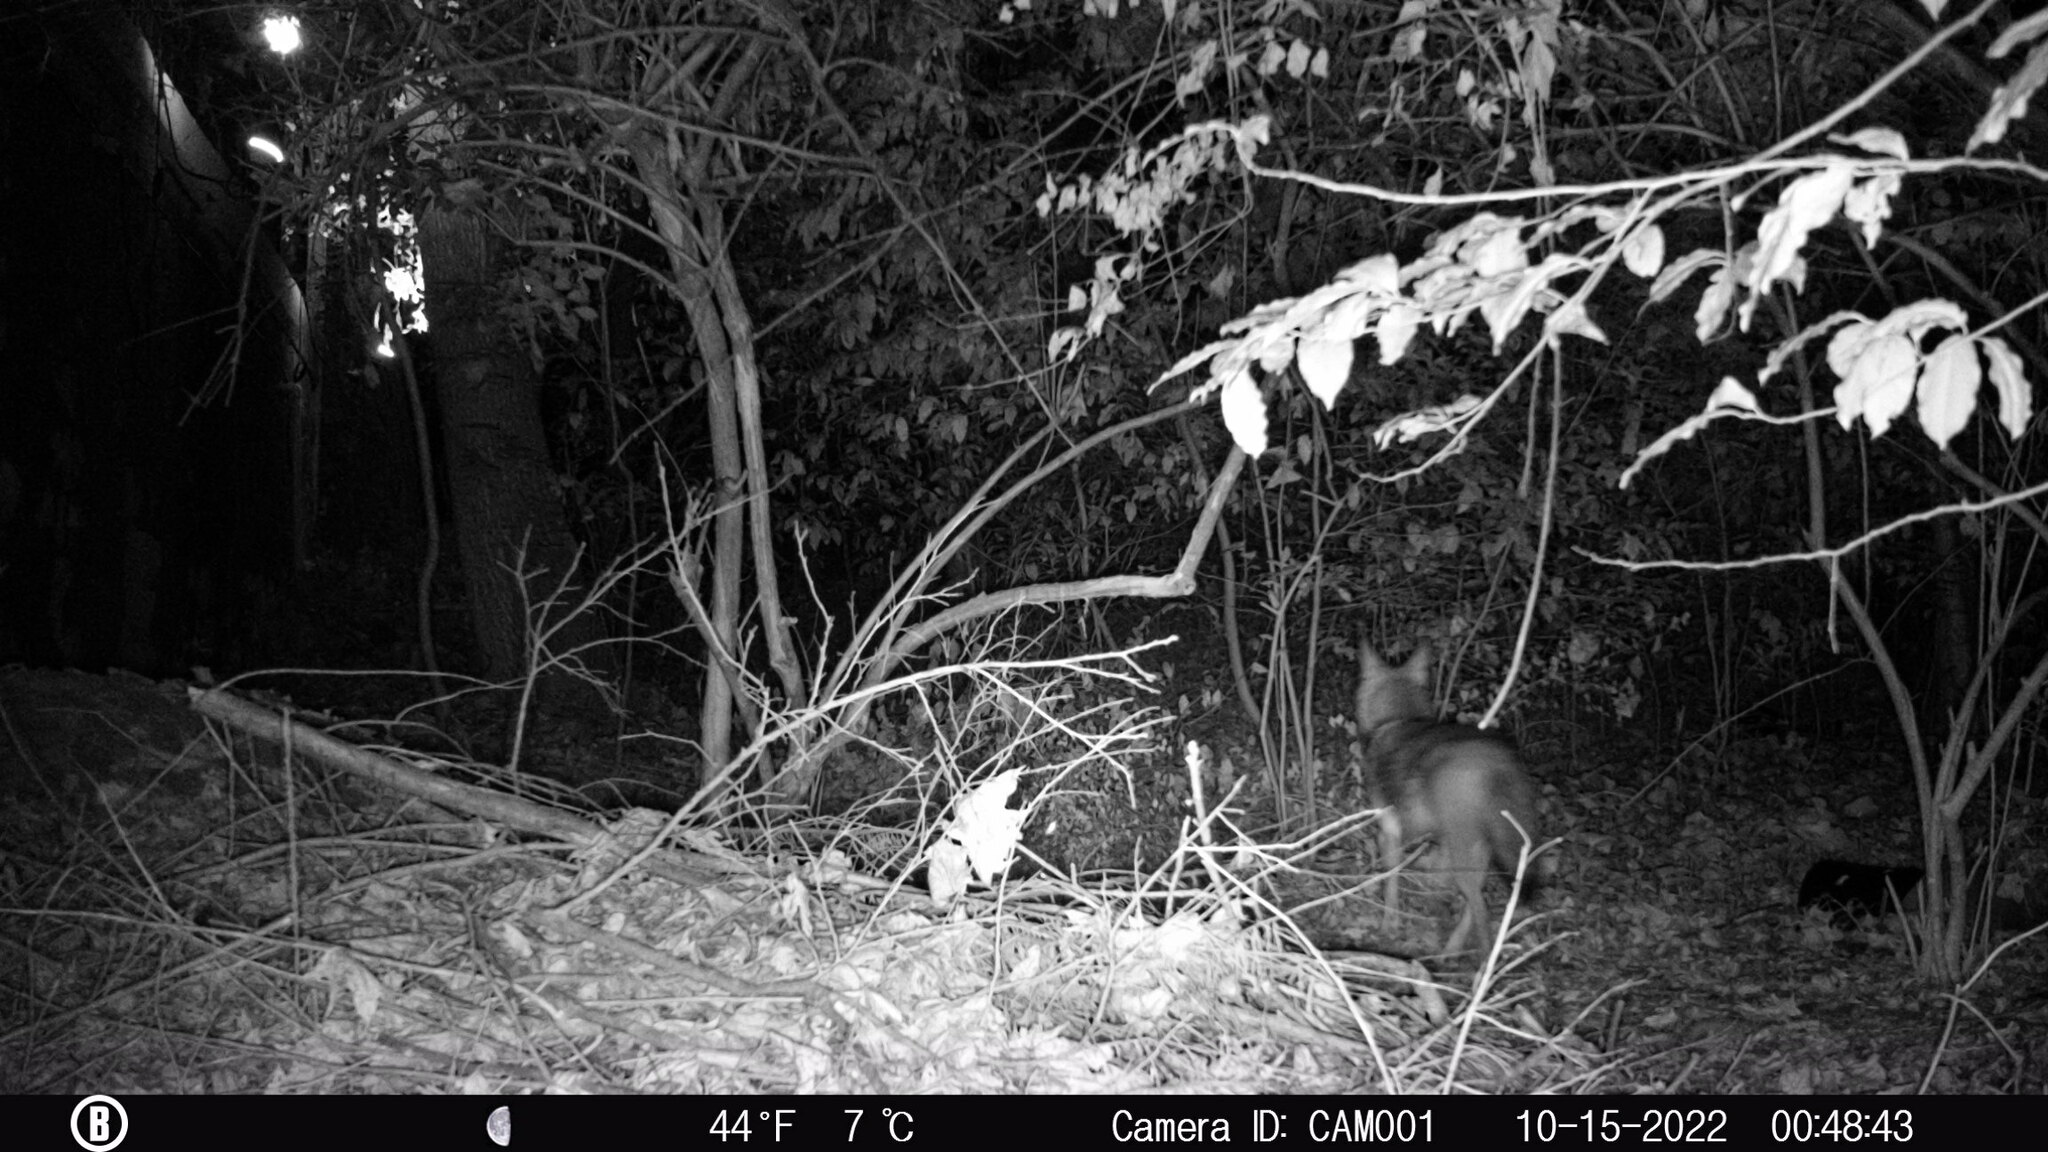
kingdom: Animalia
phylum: Chordata
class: Mammalia
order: Carnivora
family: Canidae
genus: Canis
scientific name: Canis latrans
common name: Coyote
